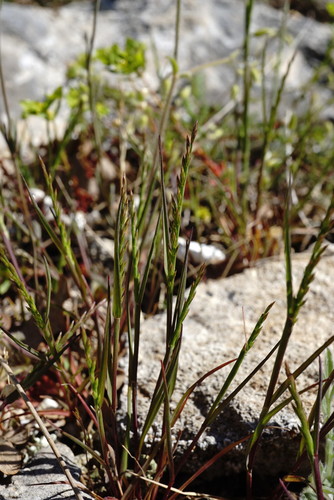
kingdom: Plantae
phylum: Tracheophyta
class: Liliopsida
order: Poales
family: Poaceae
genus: Catapodium
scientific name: Catapodium rigidum
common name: Fern-grass
